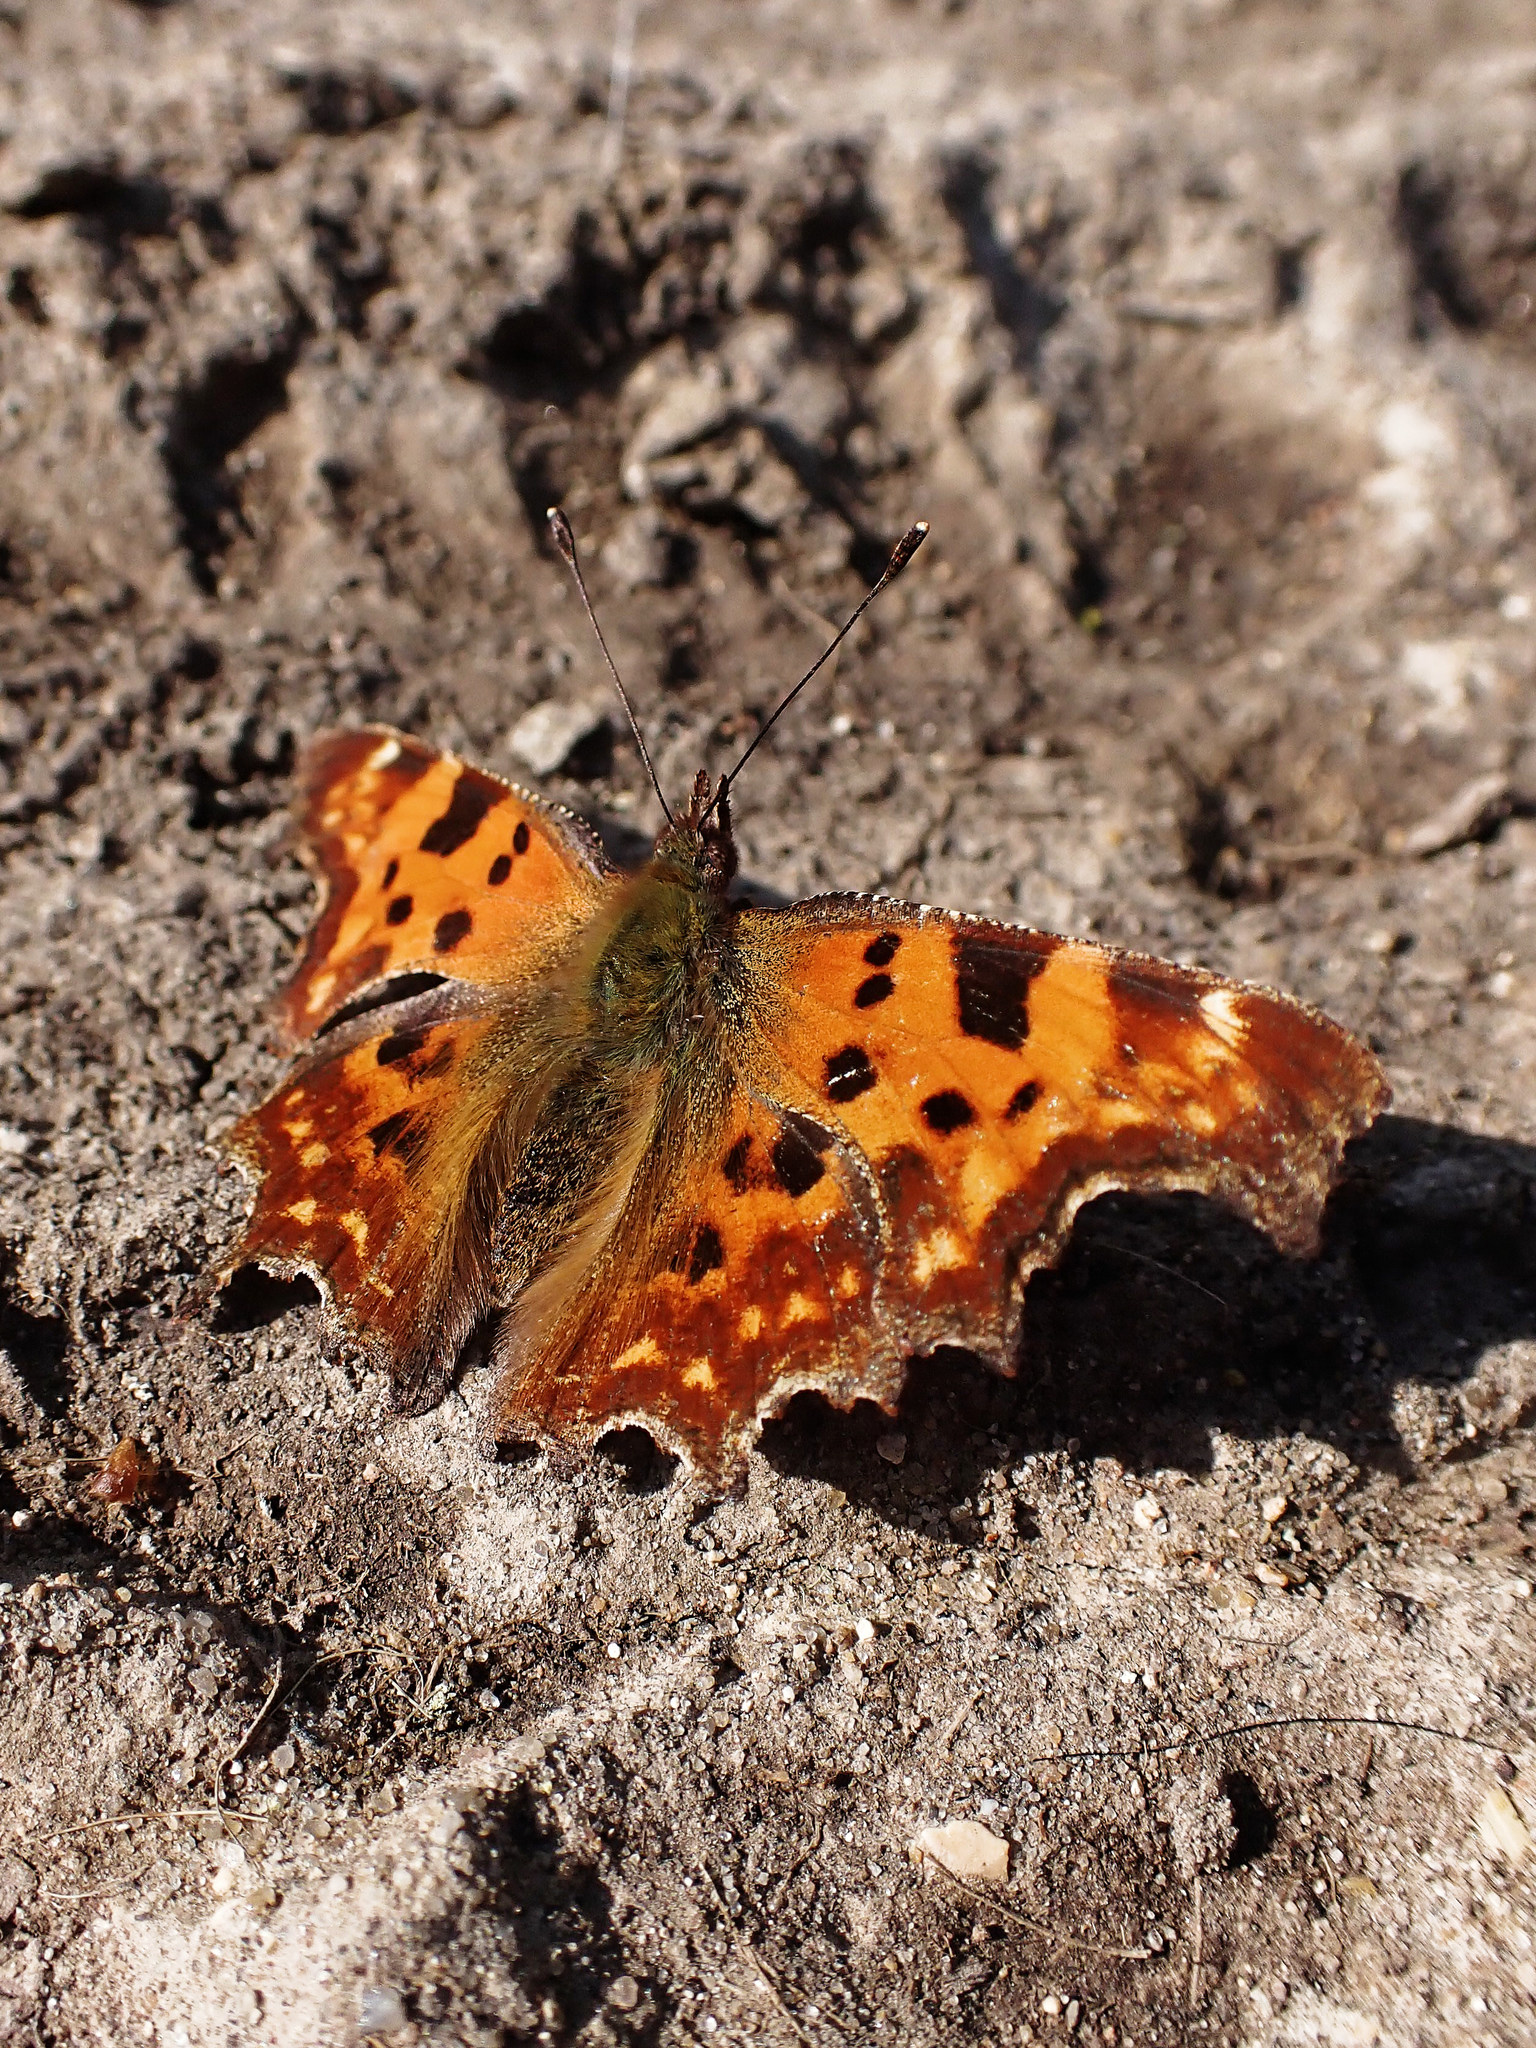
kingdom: Animalia
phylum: Arthropoda
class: Insecta
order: Lepidoptera
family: Nymphalidae
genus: Polygonia
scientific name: Polygonia c-album
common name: Comma
